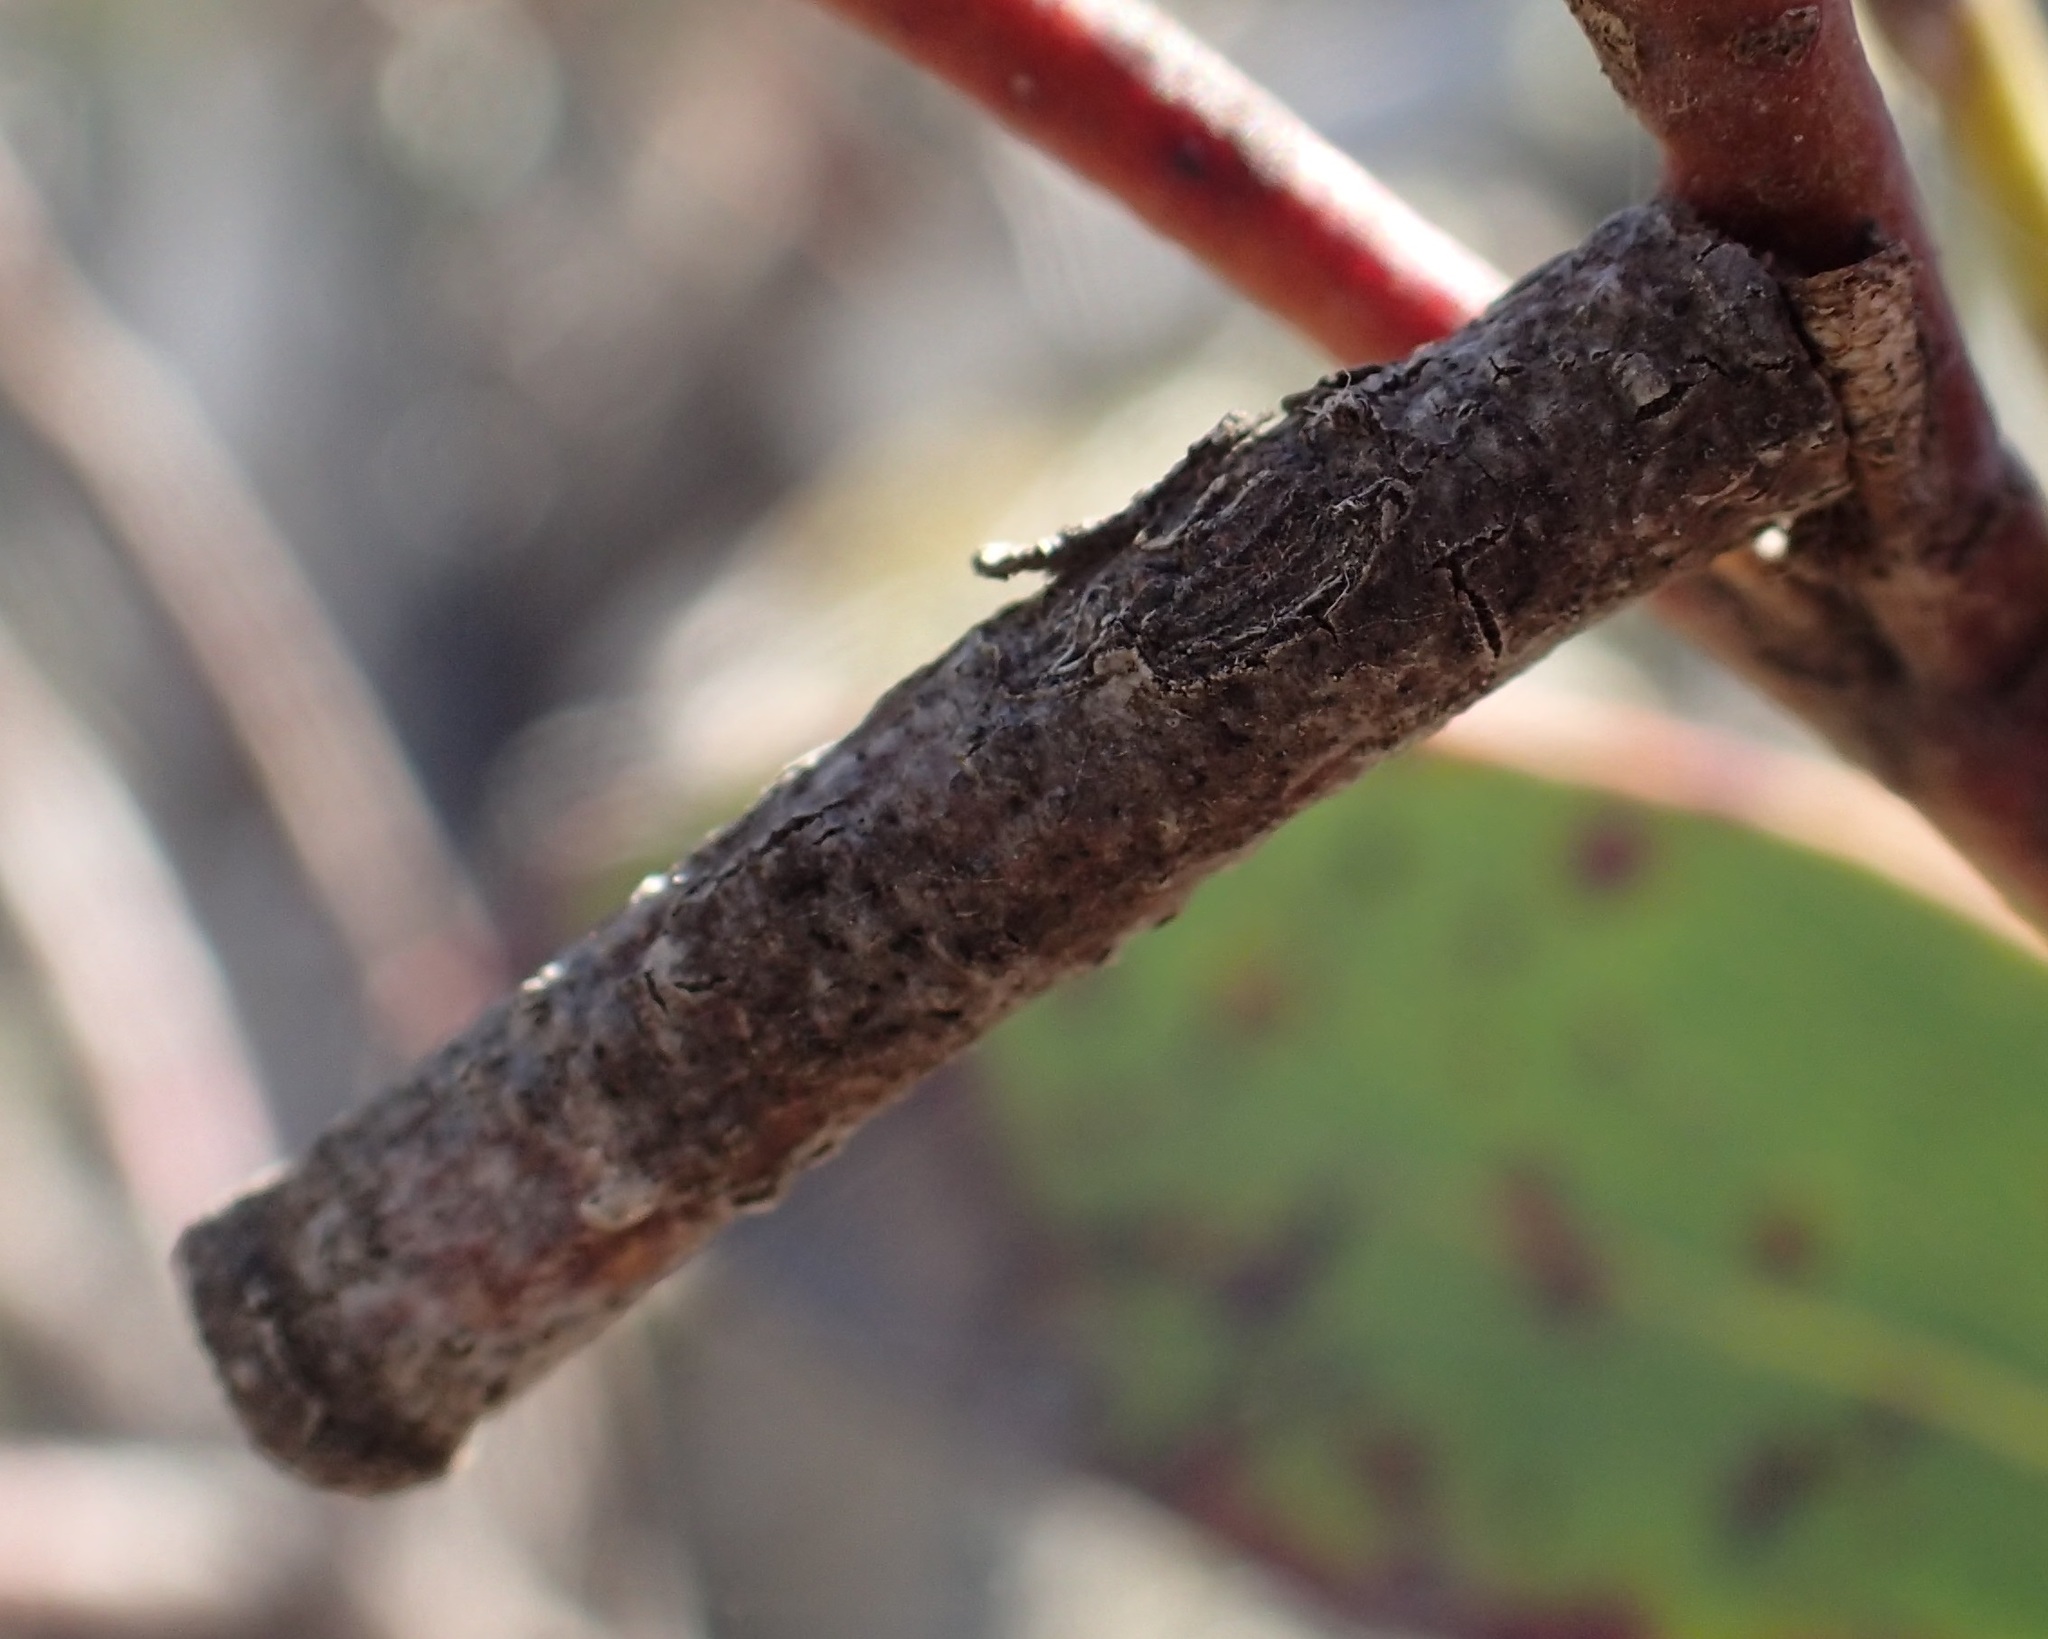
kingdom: Animalia
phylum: Arthropoda
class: Insecta
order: Lepidoptera
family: Oecophoridae
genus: Hemibela
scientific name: Hemibela
